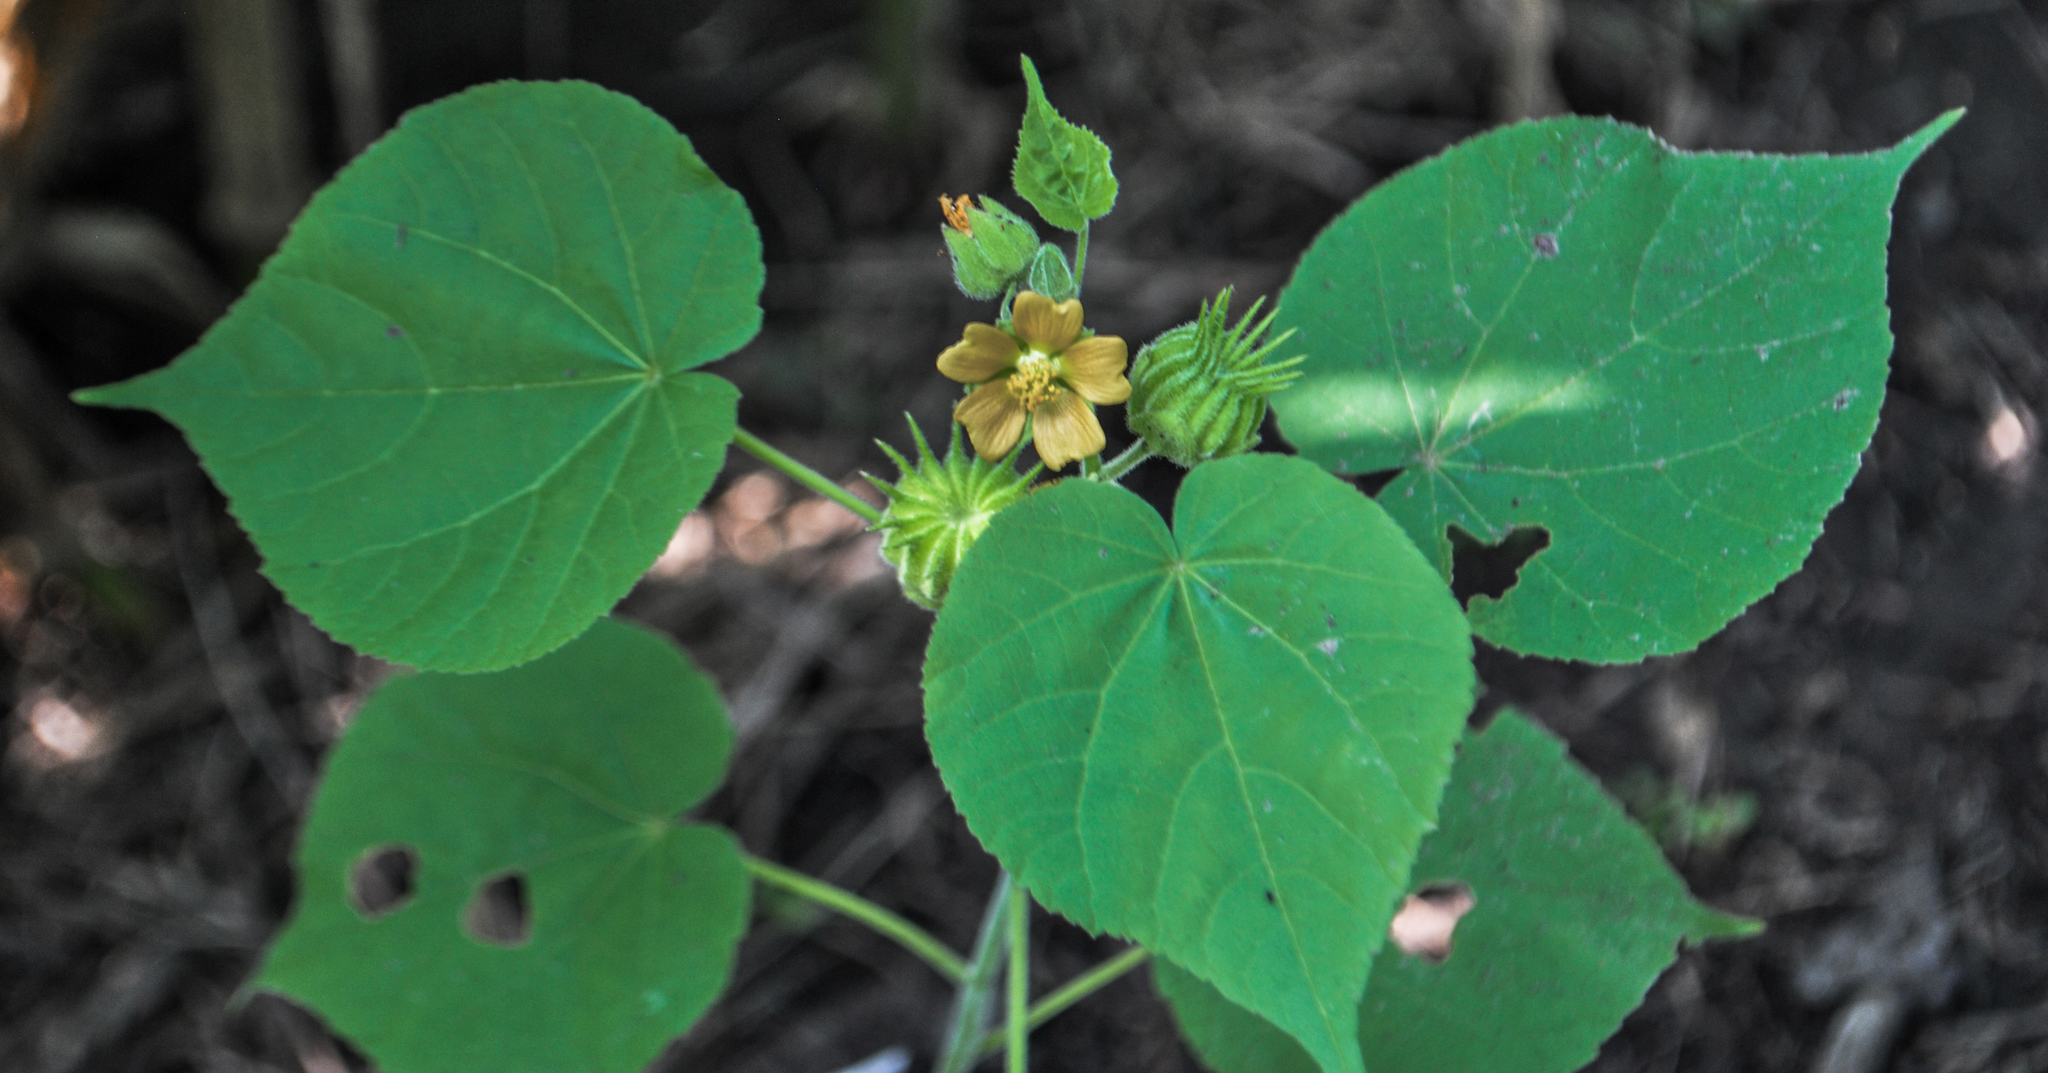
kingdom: Plantae
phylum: Tracheophyta
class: Magnoliopsida
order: Malvales
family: Malvaceae
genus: Abutilon
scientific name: Abutilon theophrasti
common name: Velvetleaf
